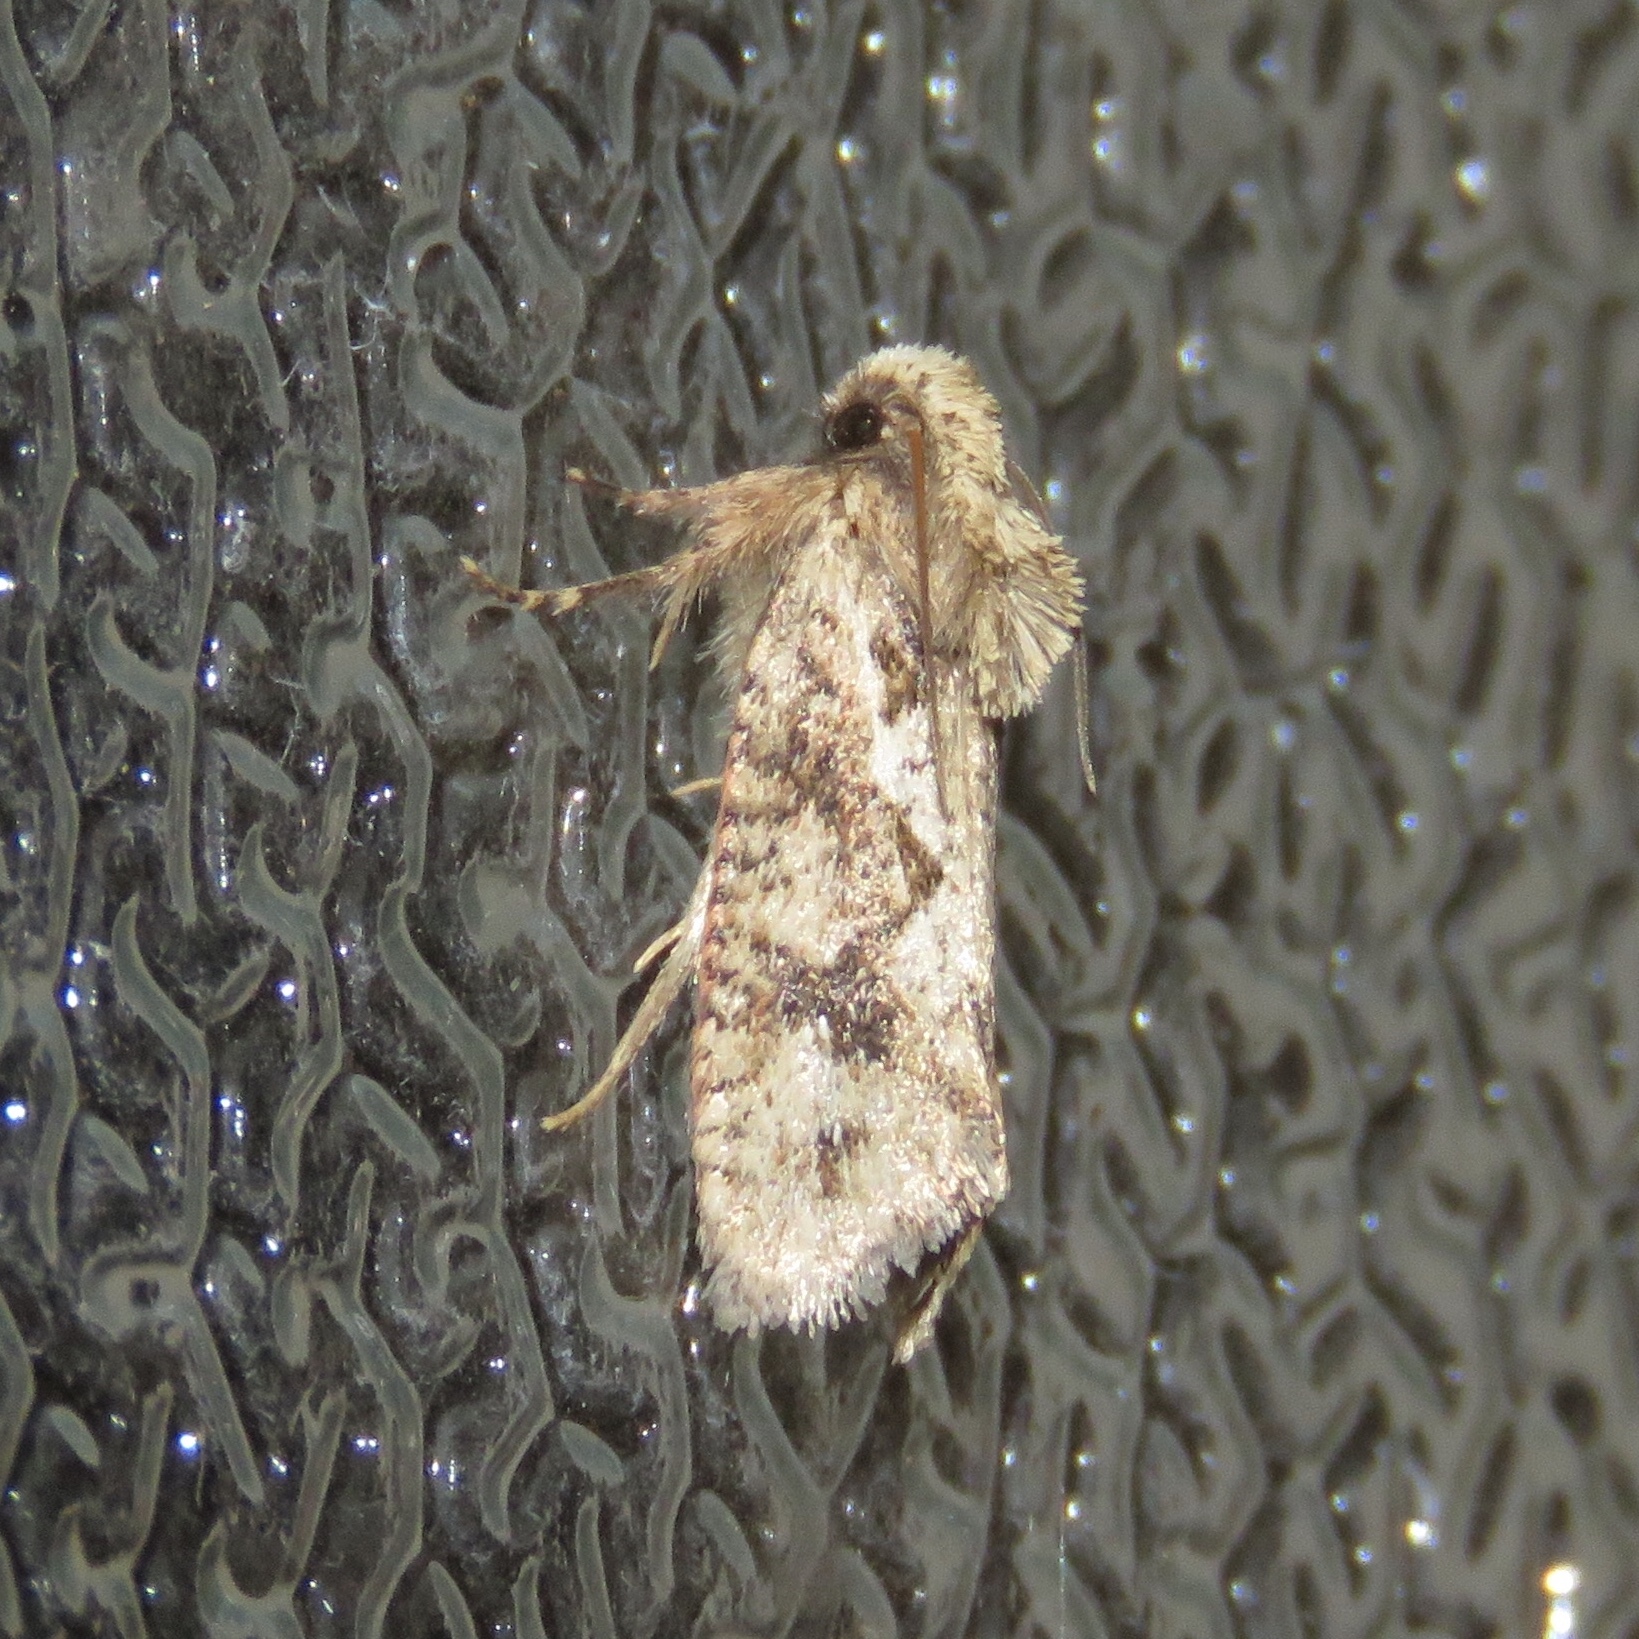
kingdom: Animalia
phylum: Arthropoda
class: Insecta
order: Lepidoptera
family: Tineidae
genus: Acrolophus
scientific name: Acrolophus walsinghami
